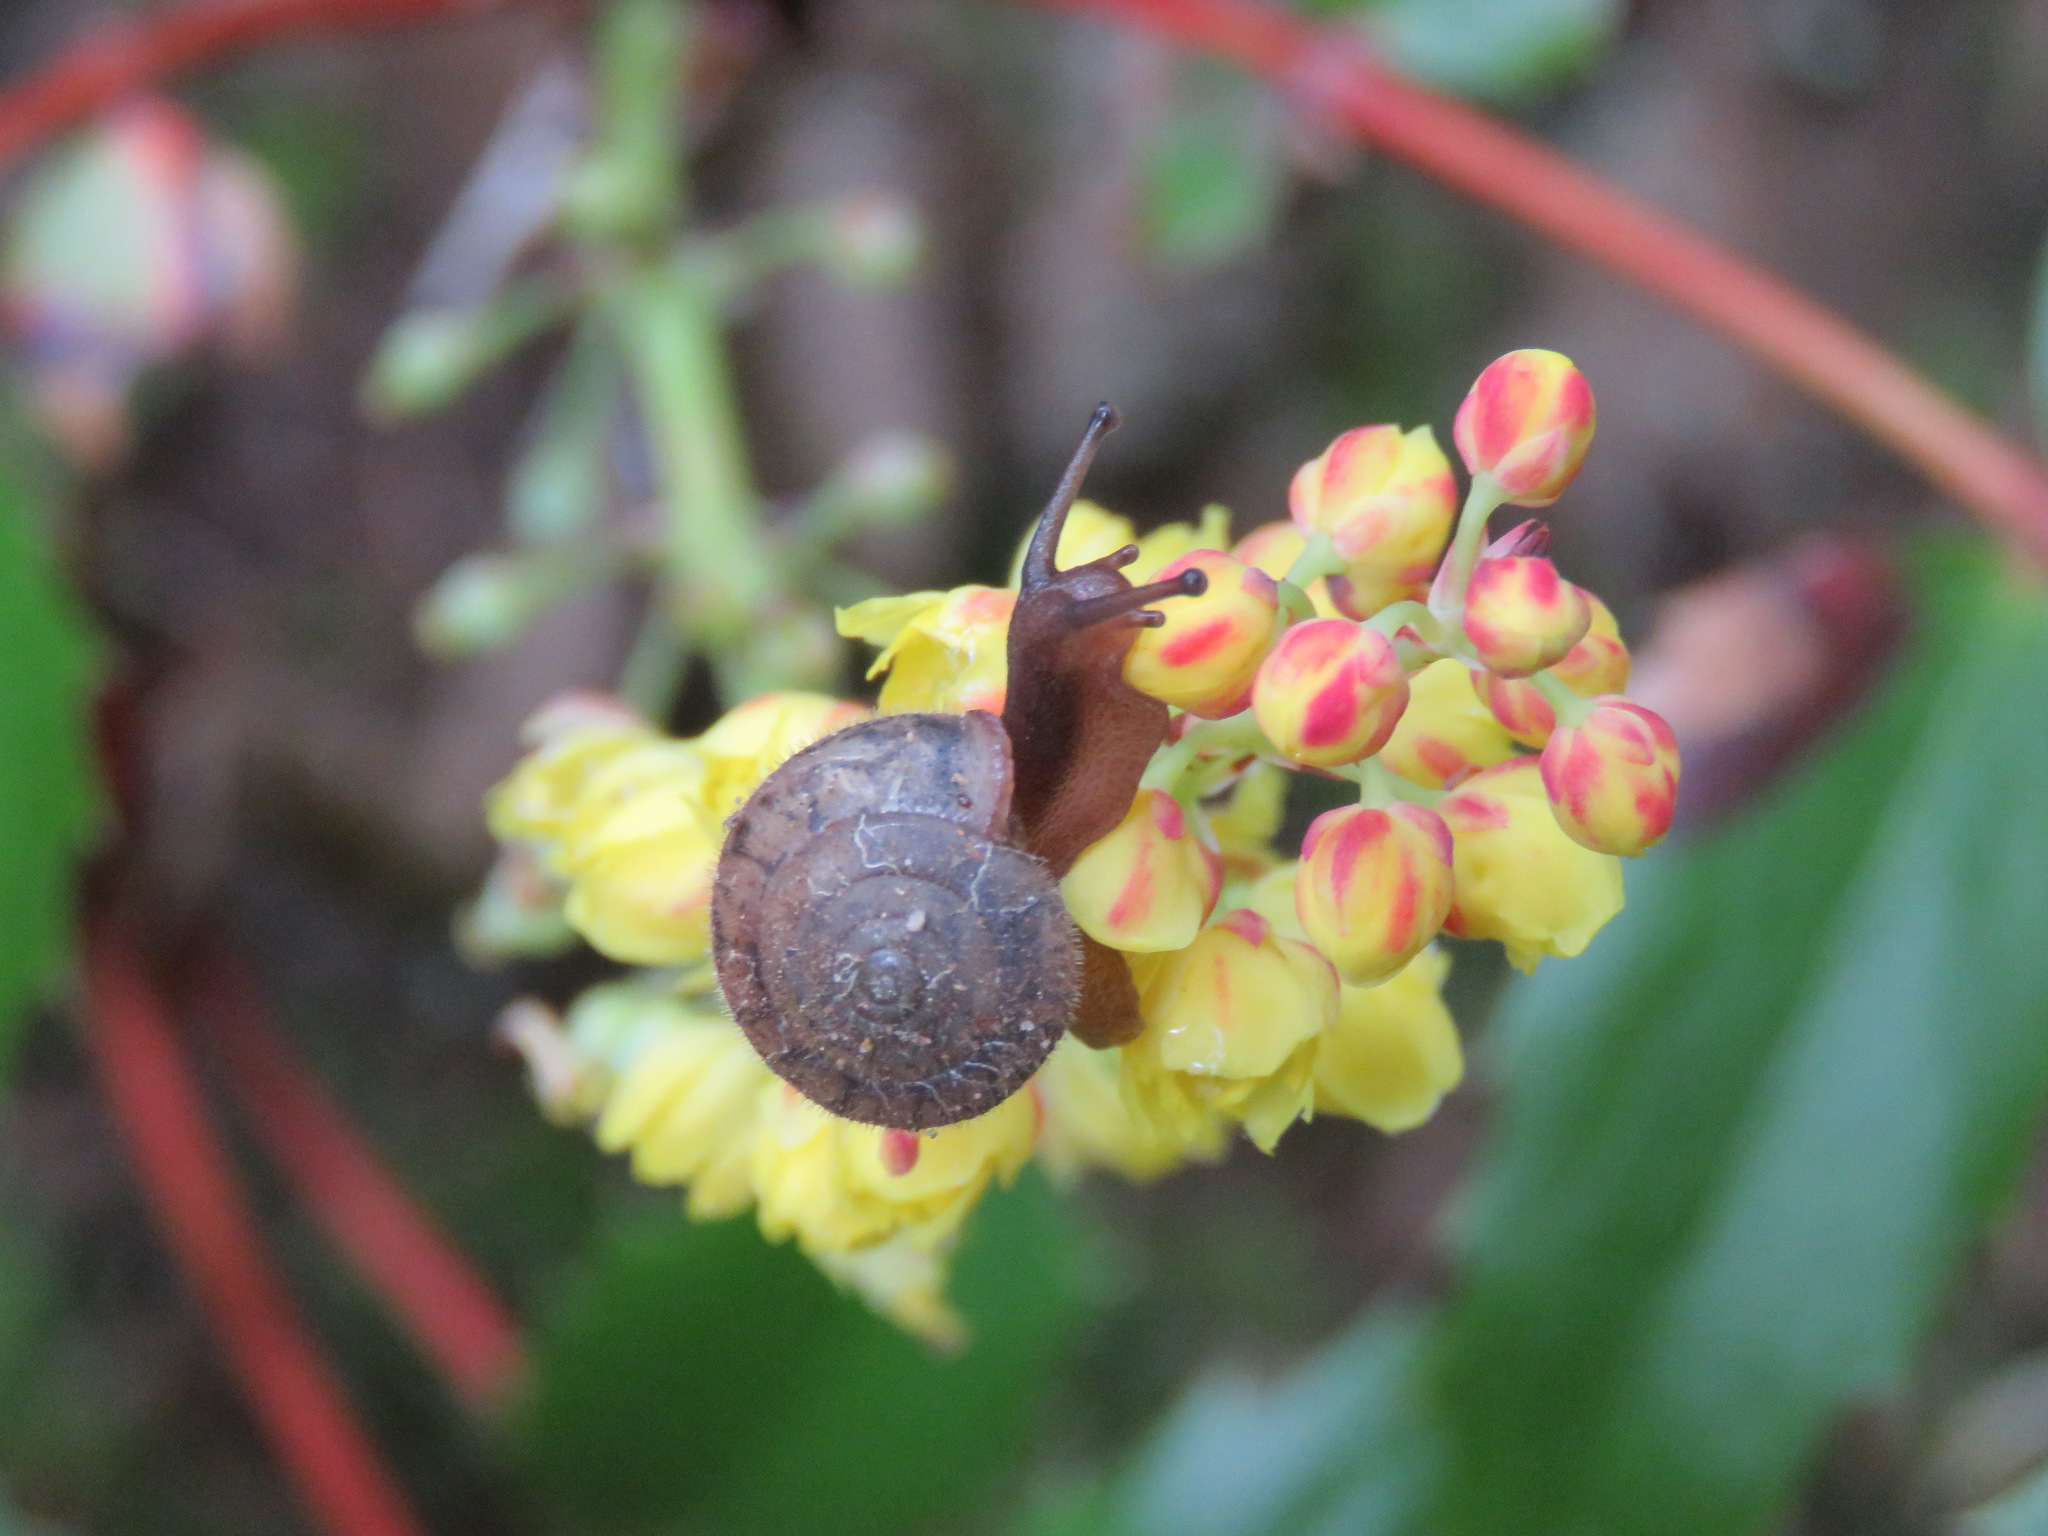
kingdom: Animalia
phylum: Mollusca
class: Gastropoda
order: Stylommatophora
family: Polygyridae
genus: Vespericola
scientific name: Vespericola columbianus
